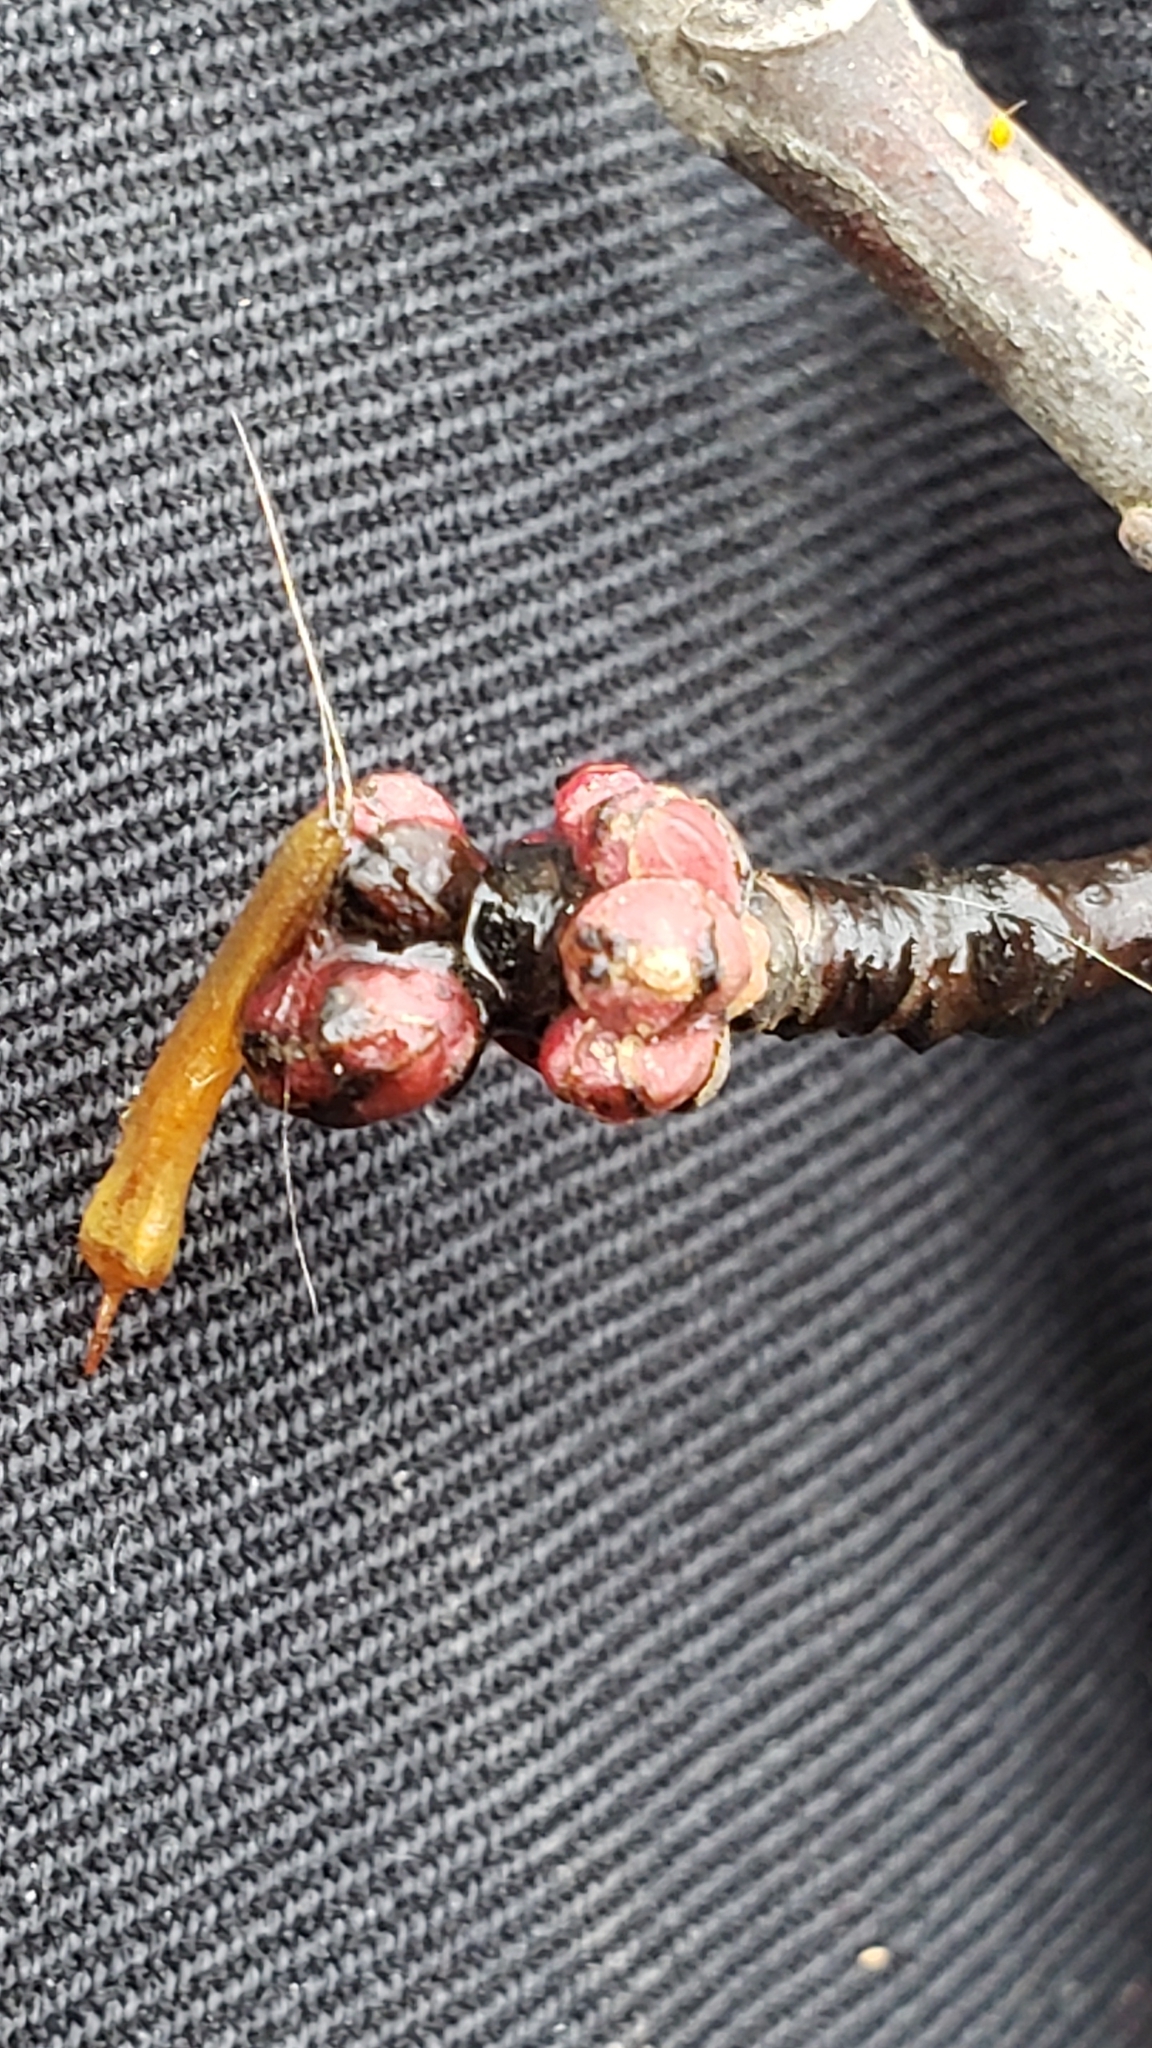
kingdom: Plantae
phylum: Tracheophyta
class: Magnoliopsida
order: Sapindales
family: Sapindaceae
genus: Acer
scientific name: Acer rubrum
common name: Red maple
